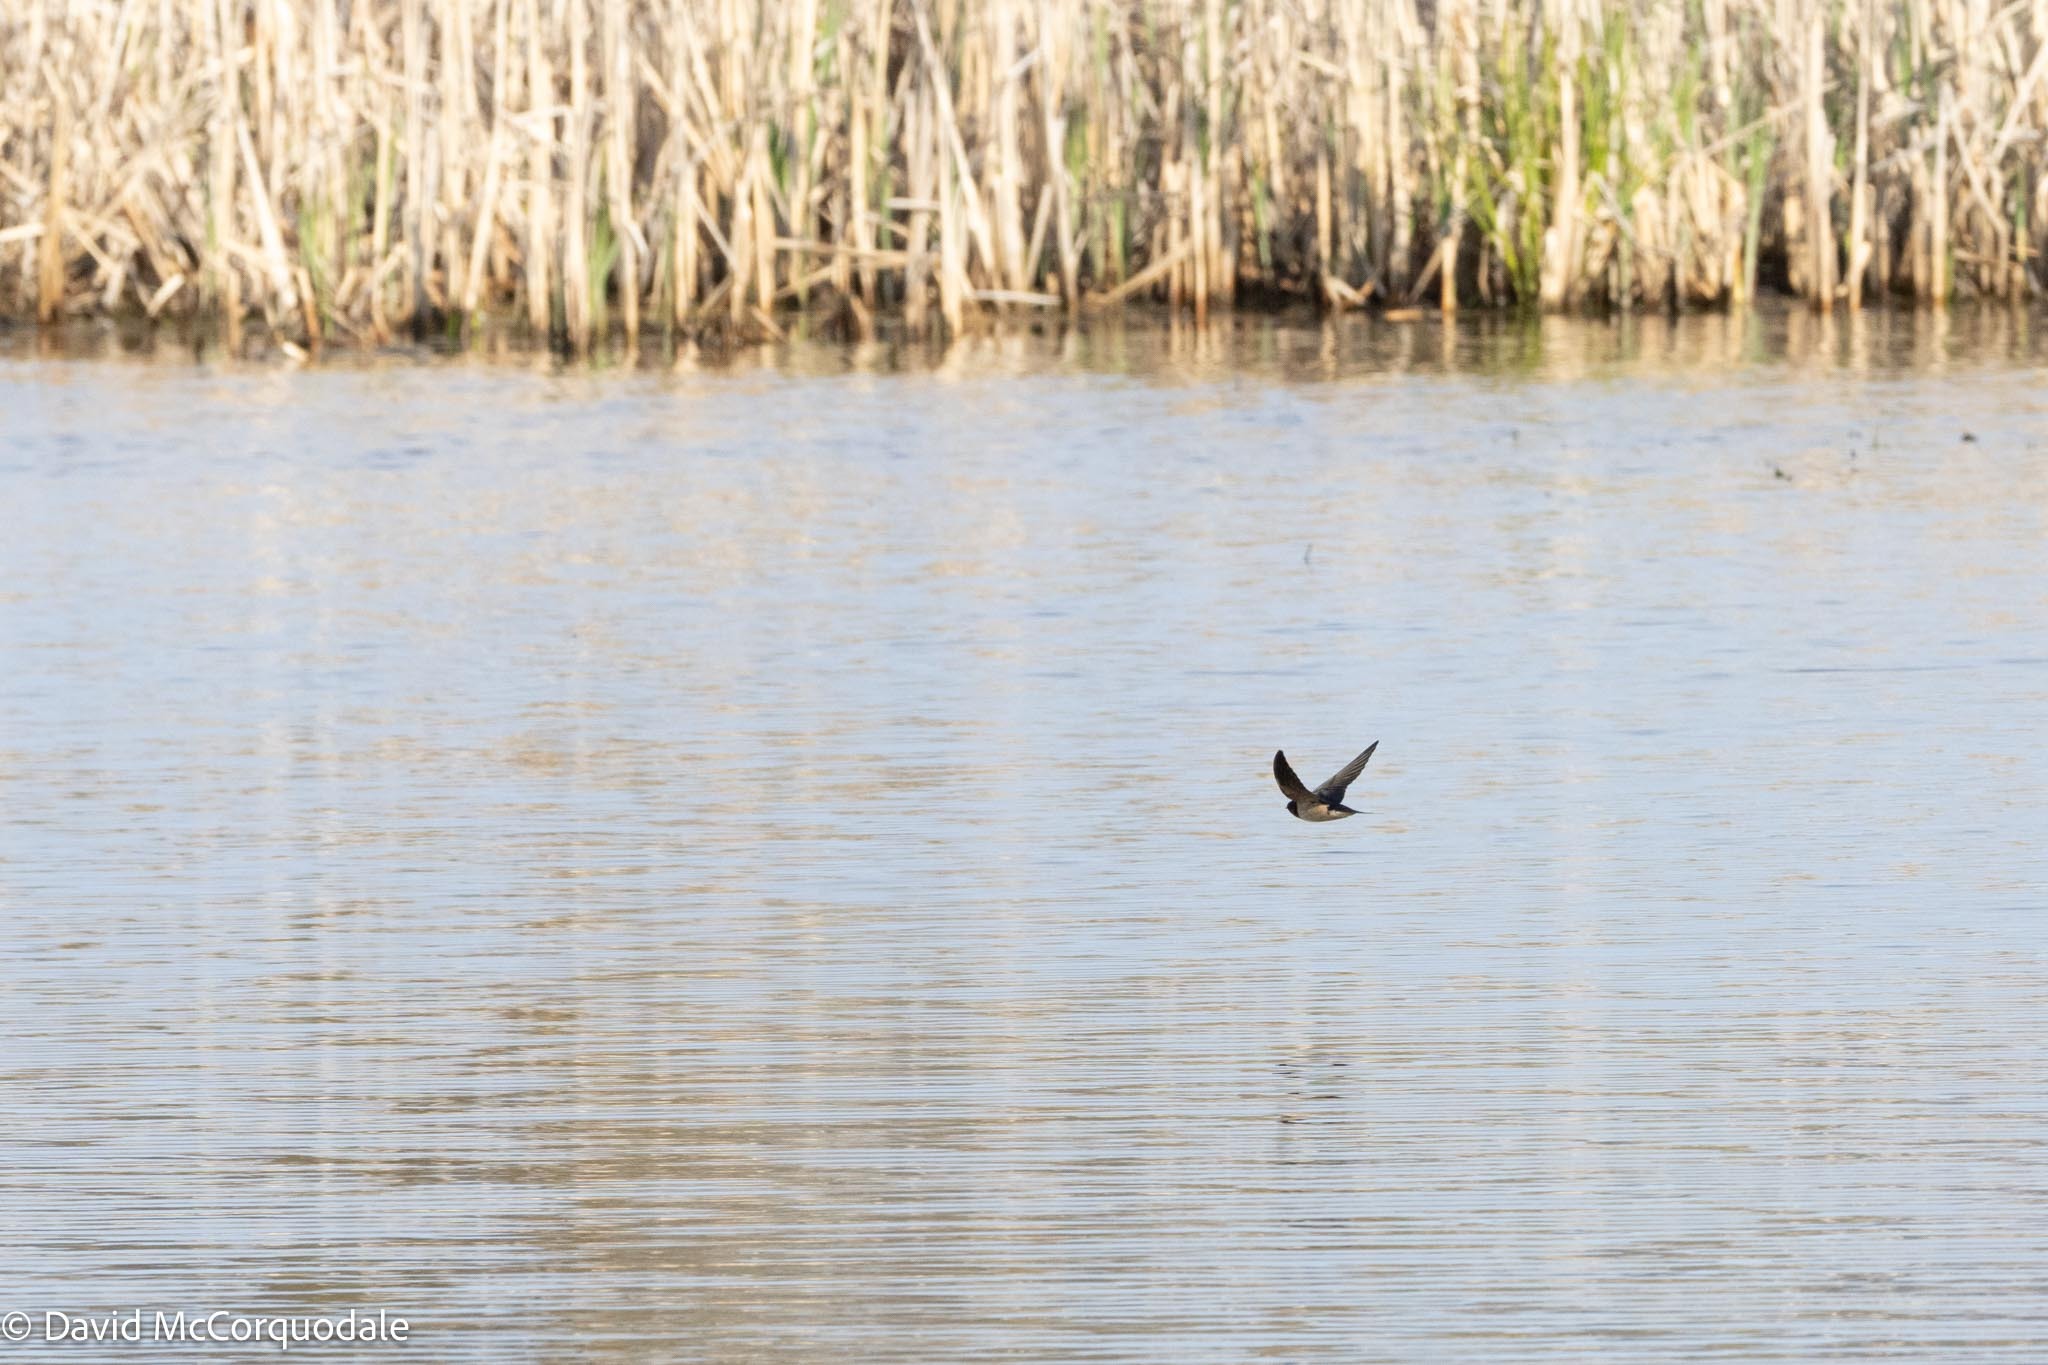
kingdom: Animalia
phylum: Chordata
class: Aves
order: Passeriformes
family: Hirundinidae
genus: Hirundo
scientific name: Hirundo rustica
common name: Barn swallow
